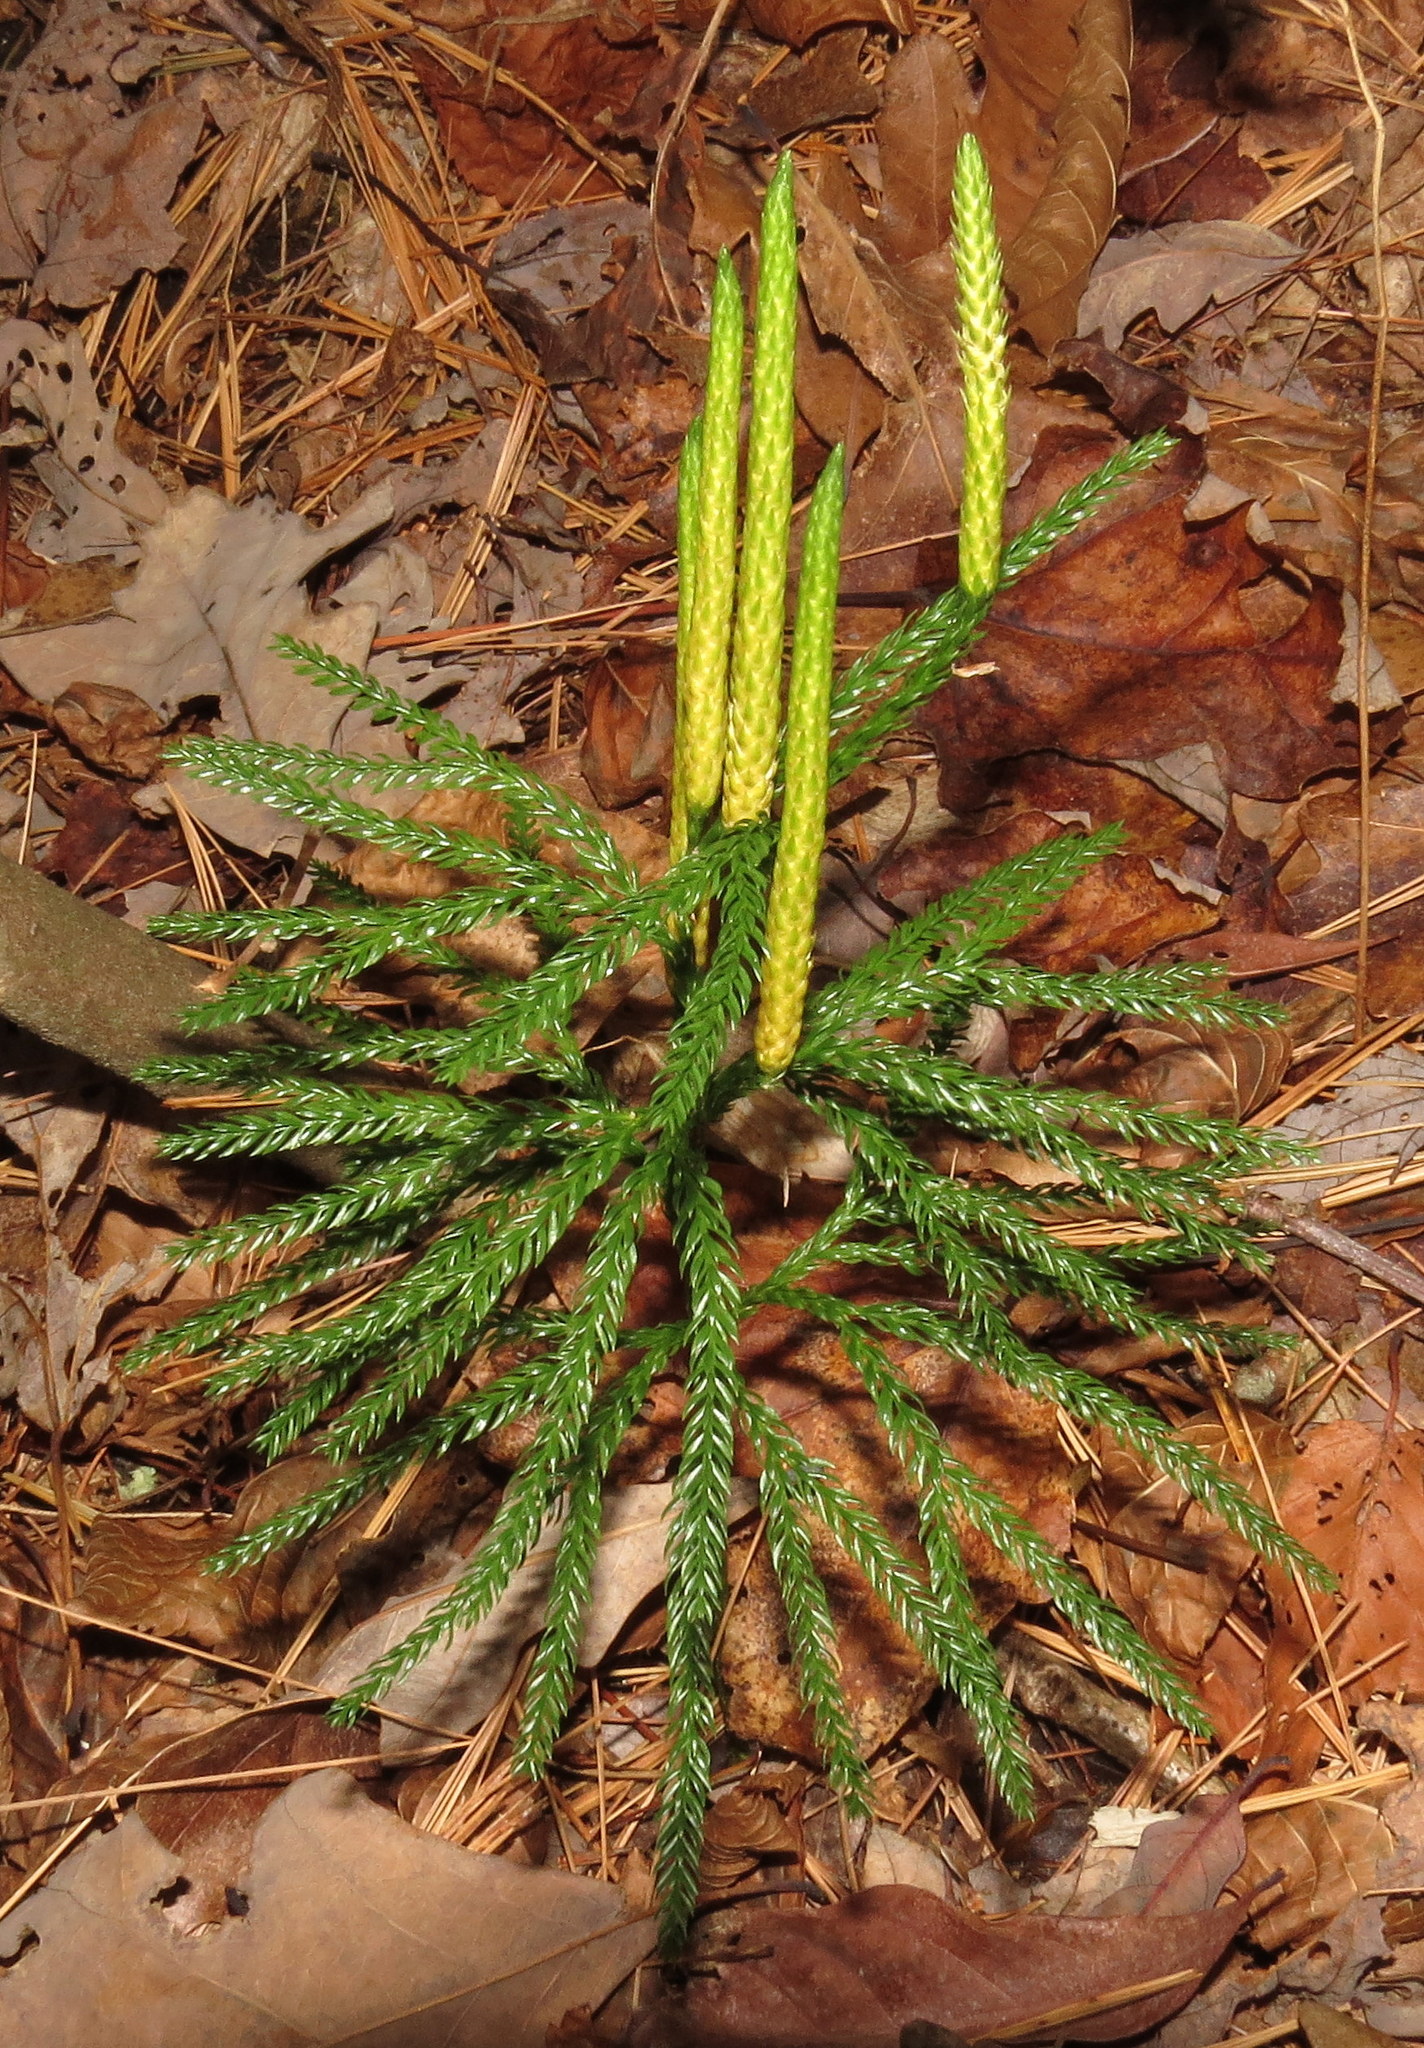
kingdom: Plantae
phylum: Tracheophyta
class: Lycopodiopsida
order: Lycopodiales
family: Lycopodiaceae
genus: Dendrolycopodium
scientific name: Dendrolycopodium obscurum
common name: Common ground-pine
